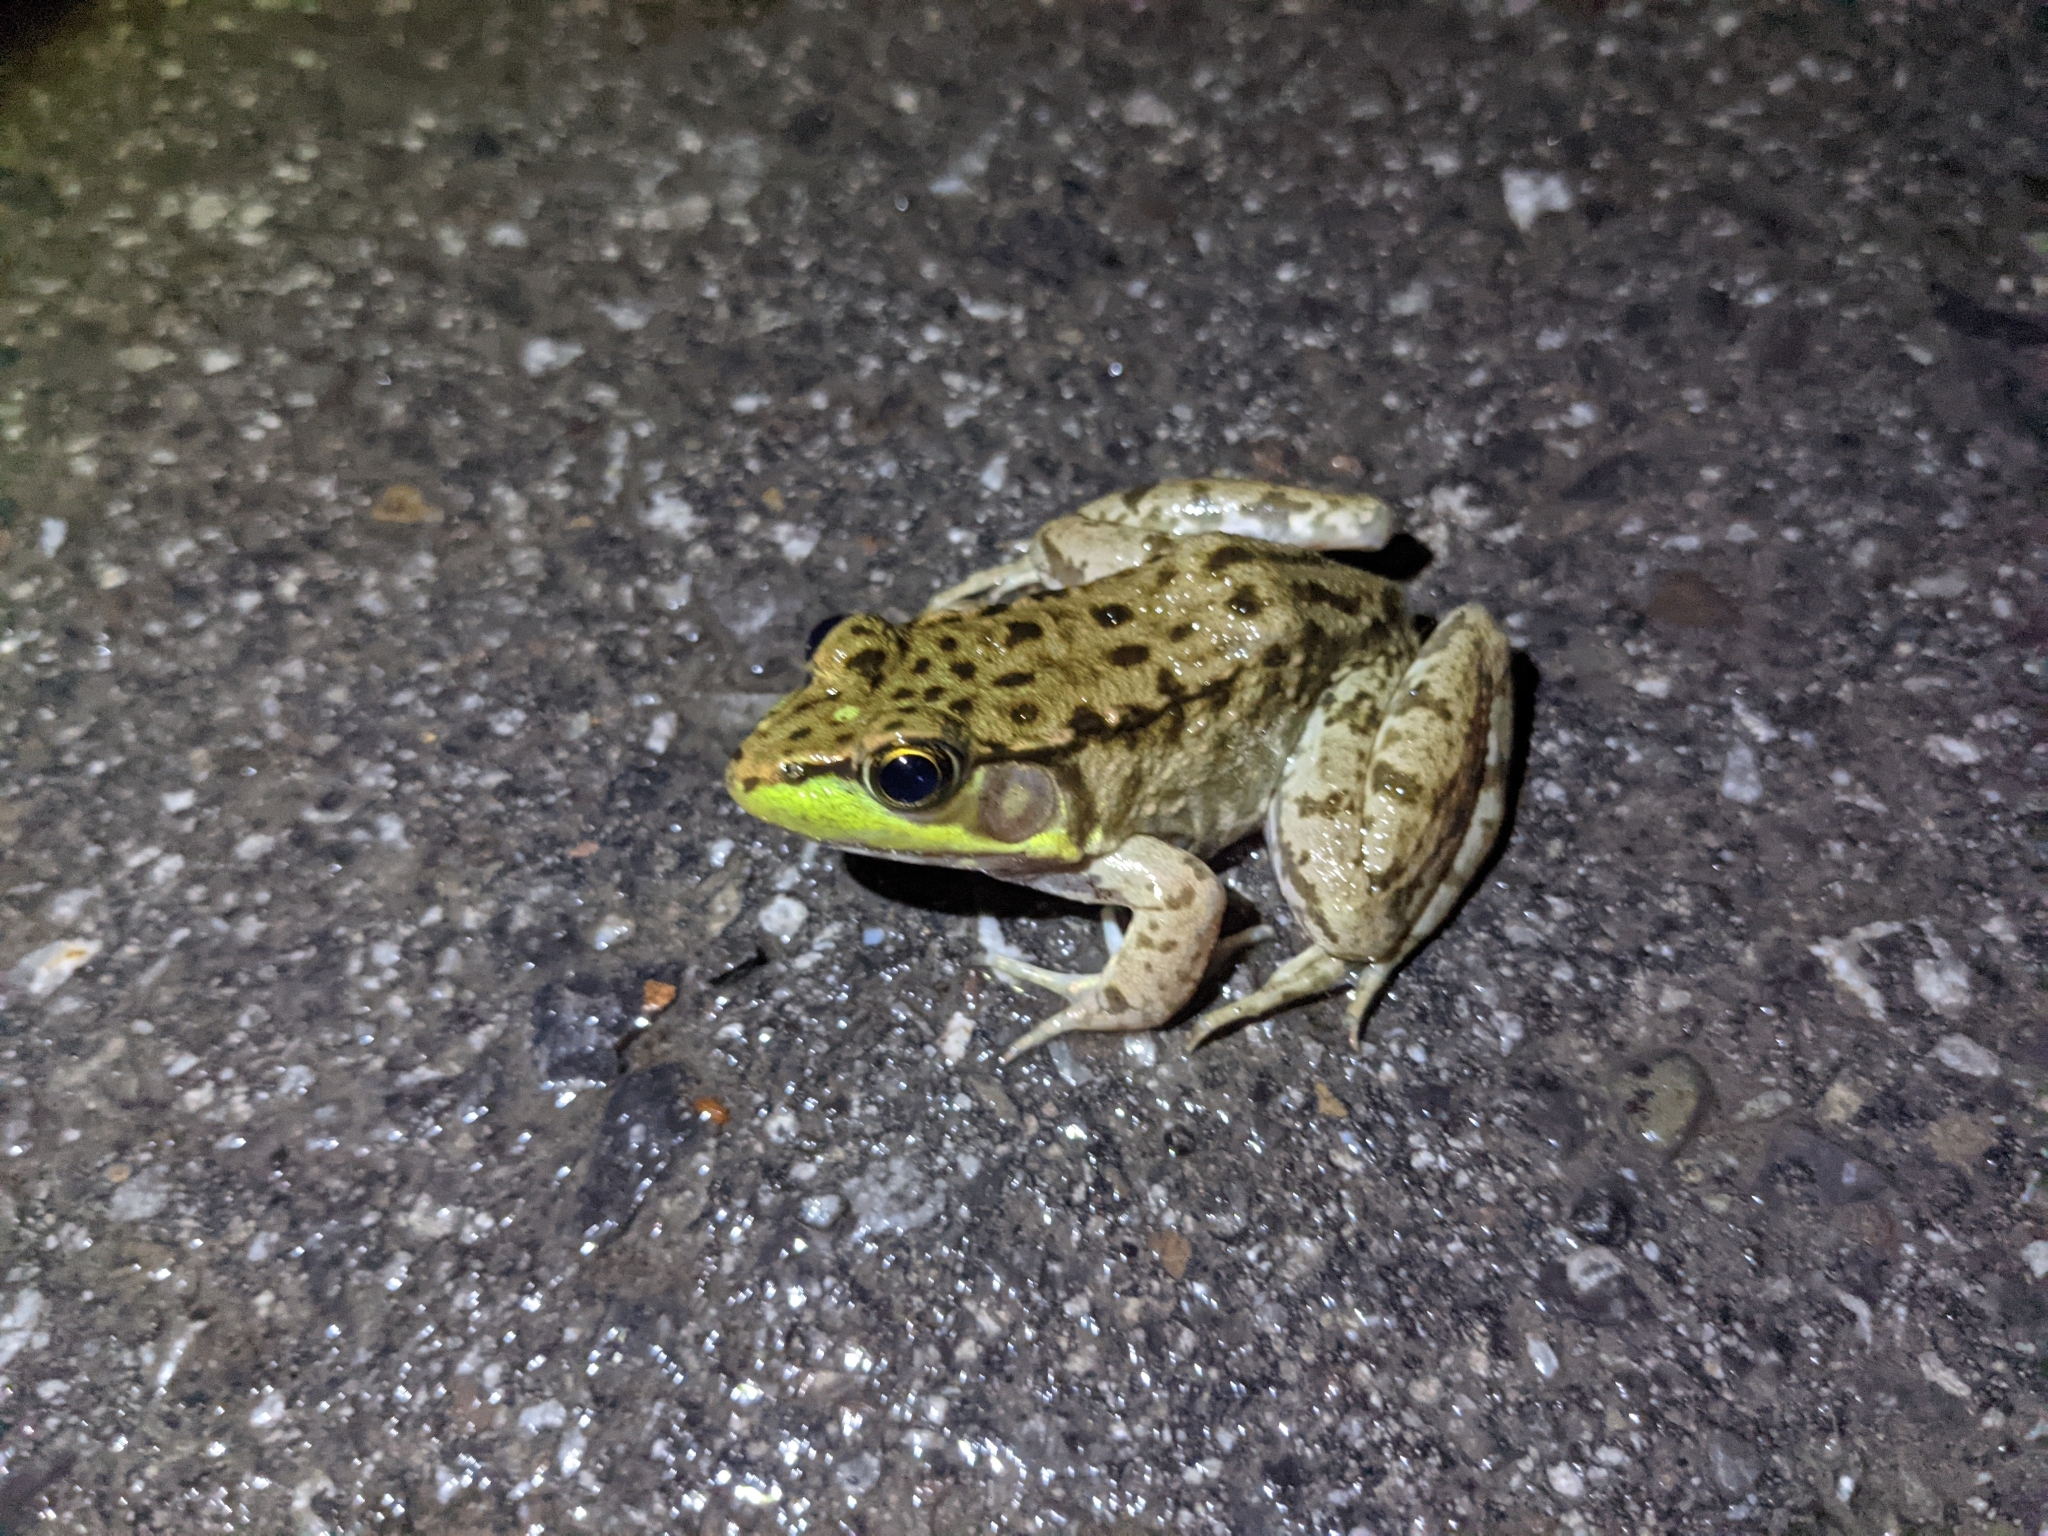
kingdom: Animalia
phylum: Chordata
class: Amphibia
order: Anura
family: Ranidae
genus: Lithobates
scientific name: Lithobates clamitans
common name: Green frog
